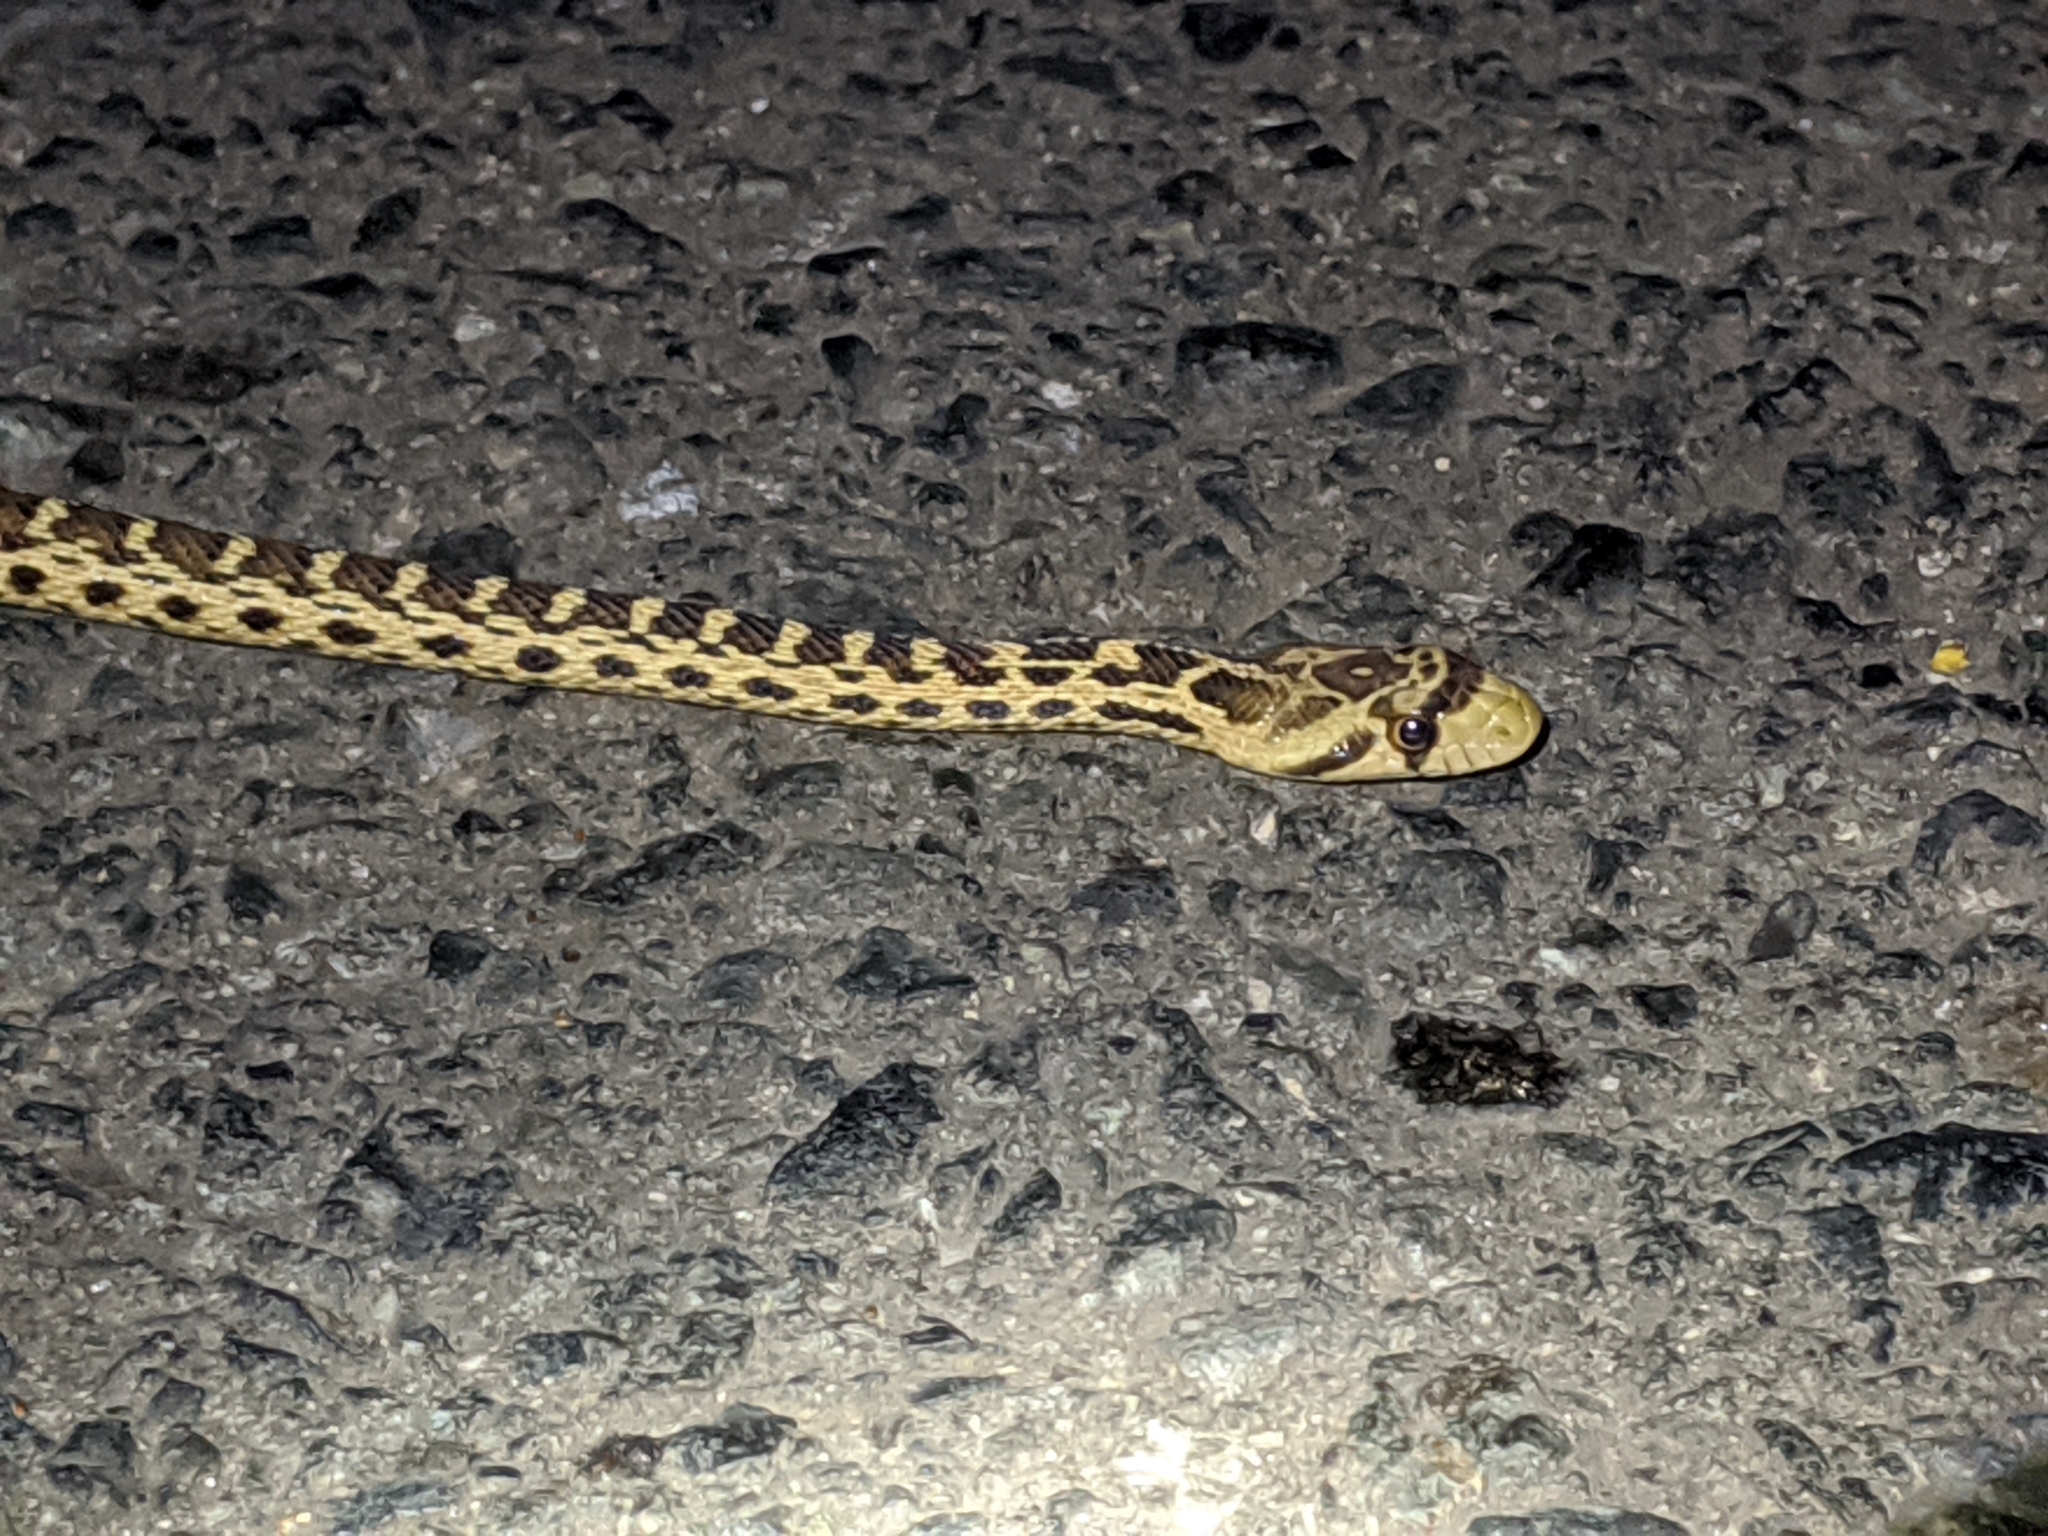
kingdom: Animalia
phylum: Chordata
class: Squamata
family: Colubridae
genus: Pituophis
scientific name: Pituophis catenifer
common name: Gopher snake
